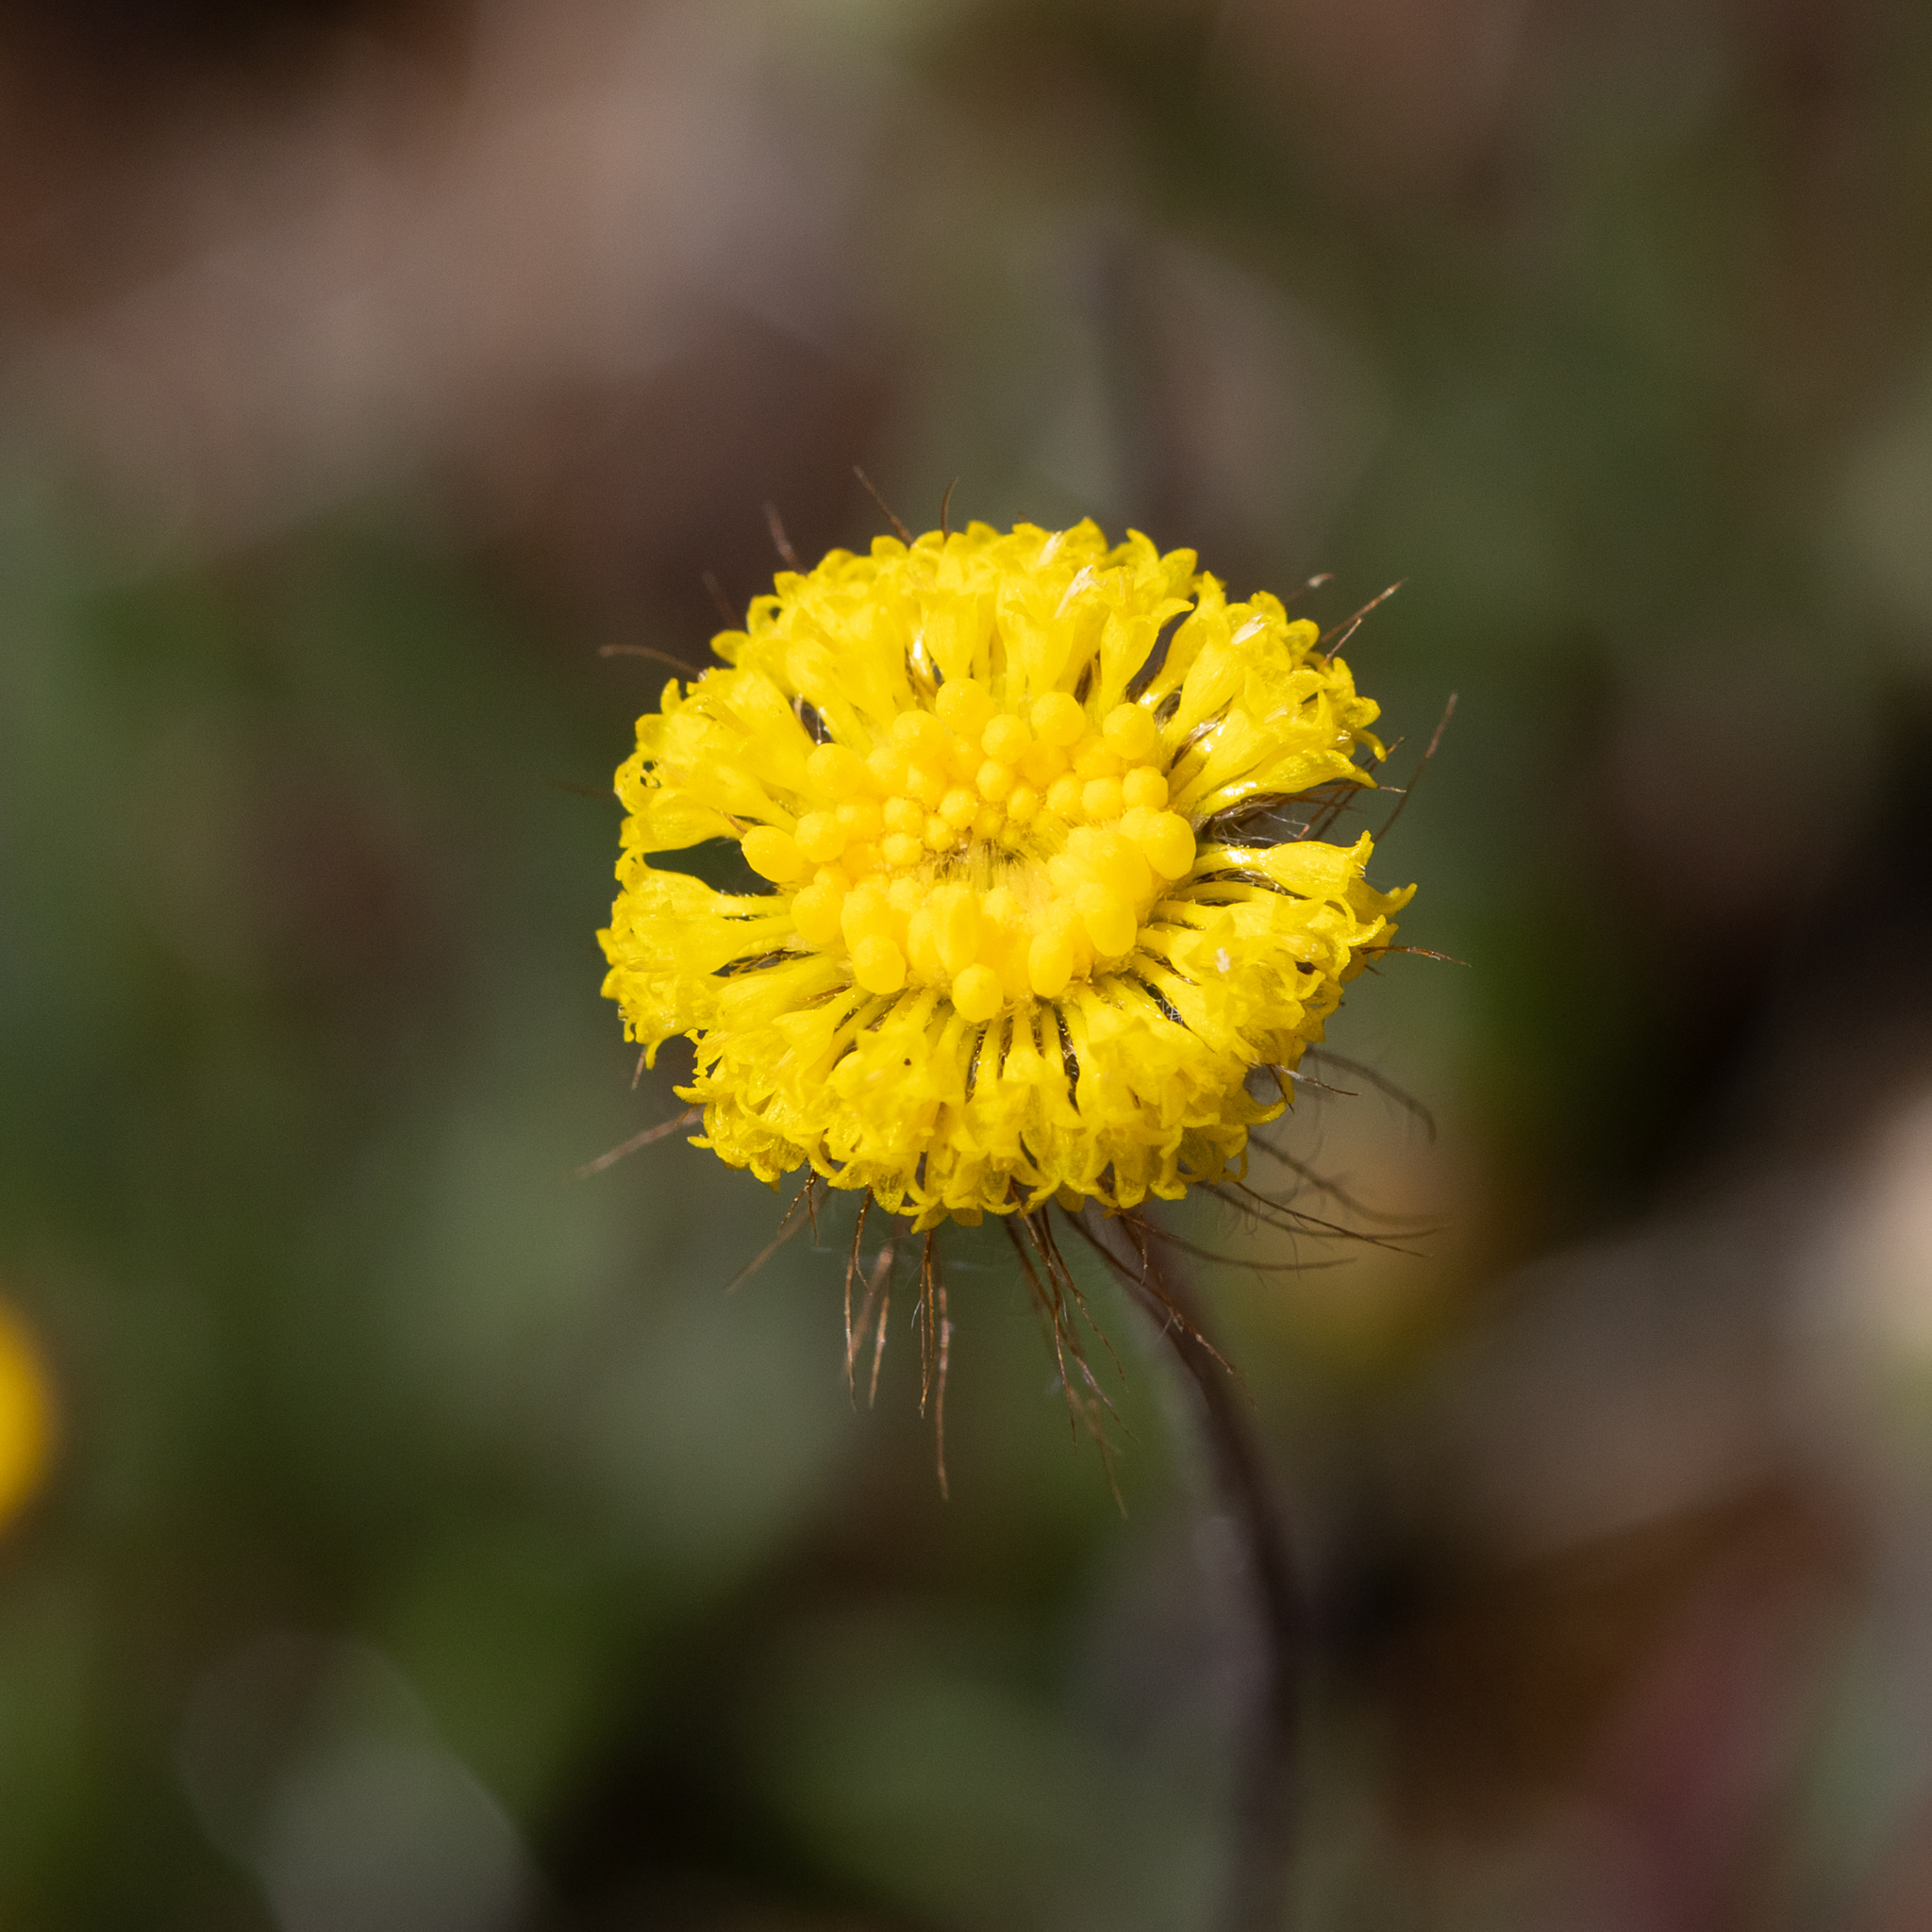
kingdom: Plantae
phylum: Tracheophyta
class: Magnoliopsida
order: Asterales
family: Asteraceae
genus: Asteridea
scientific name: Asteridea athrixioides
